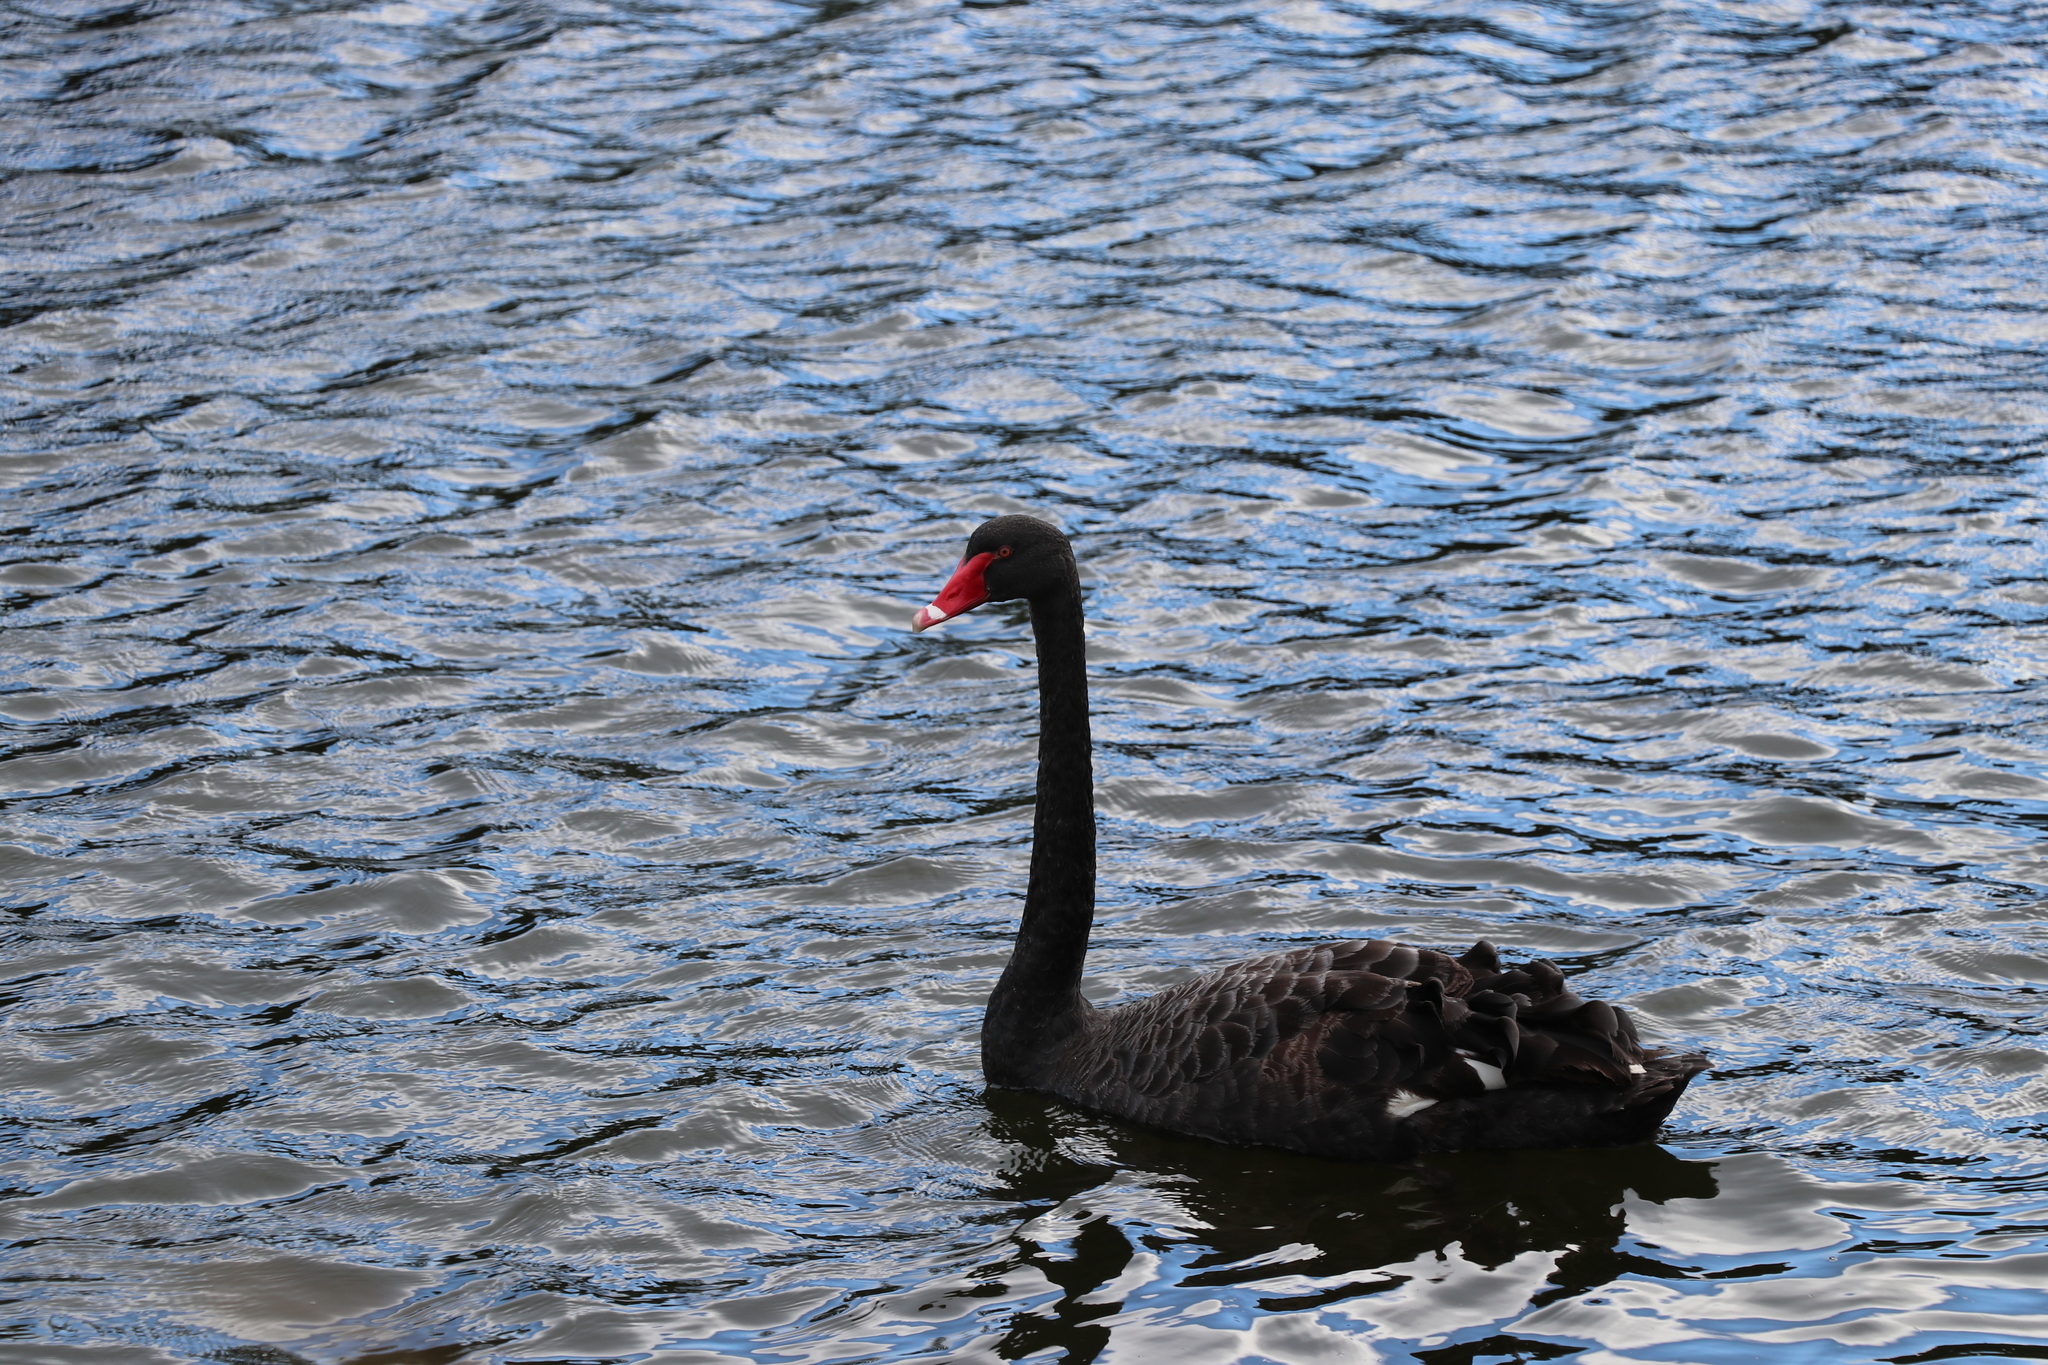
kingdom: Animalia
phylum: Chordata
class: Aves
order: Anseriformes
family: Anatidae
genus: Cygnus
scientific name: Cygnus atratus
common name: Black swan
